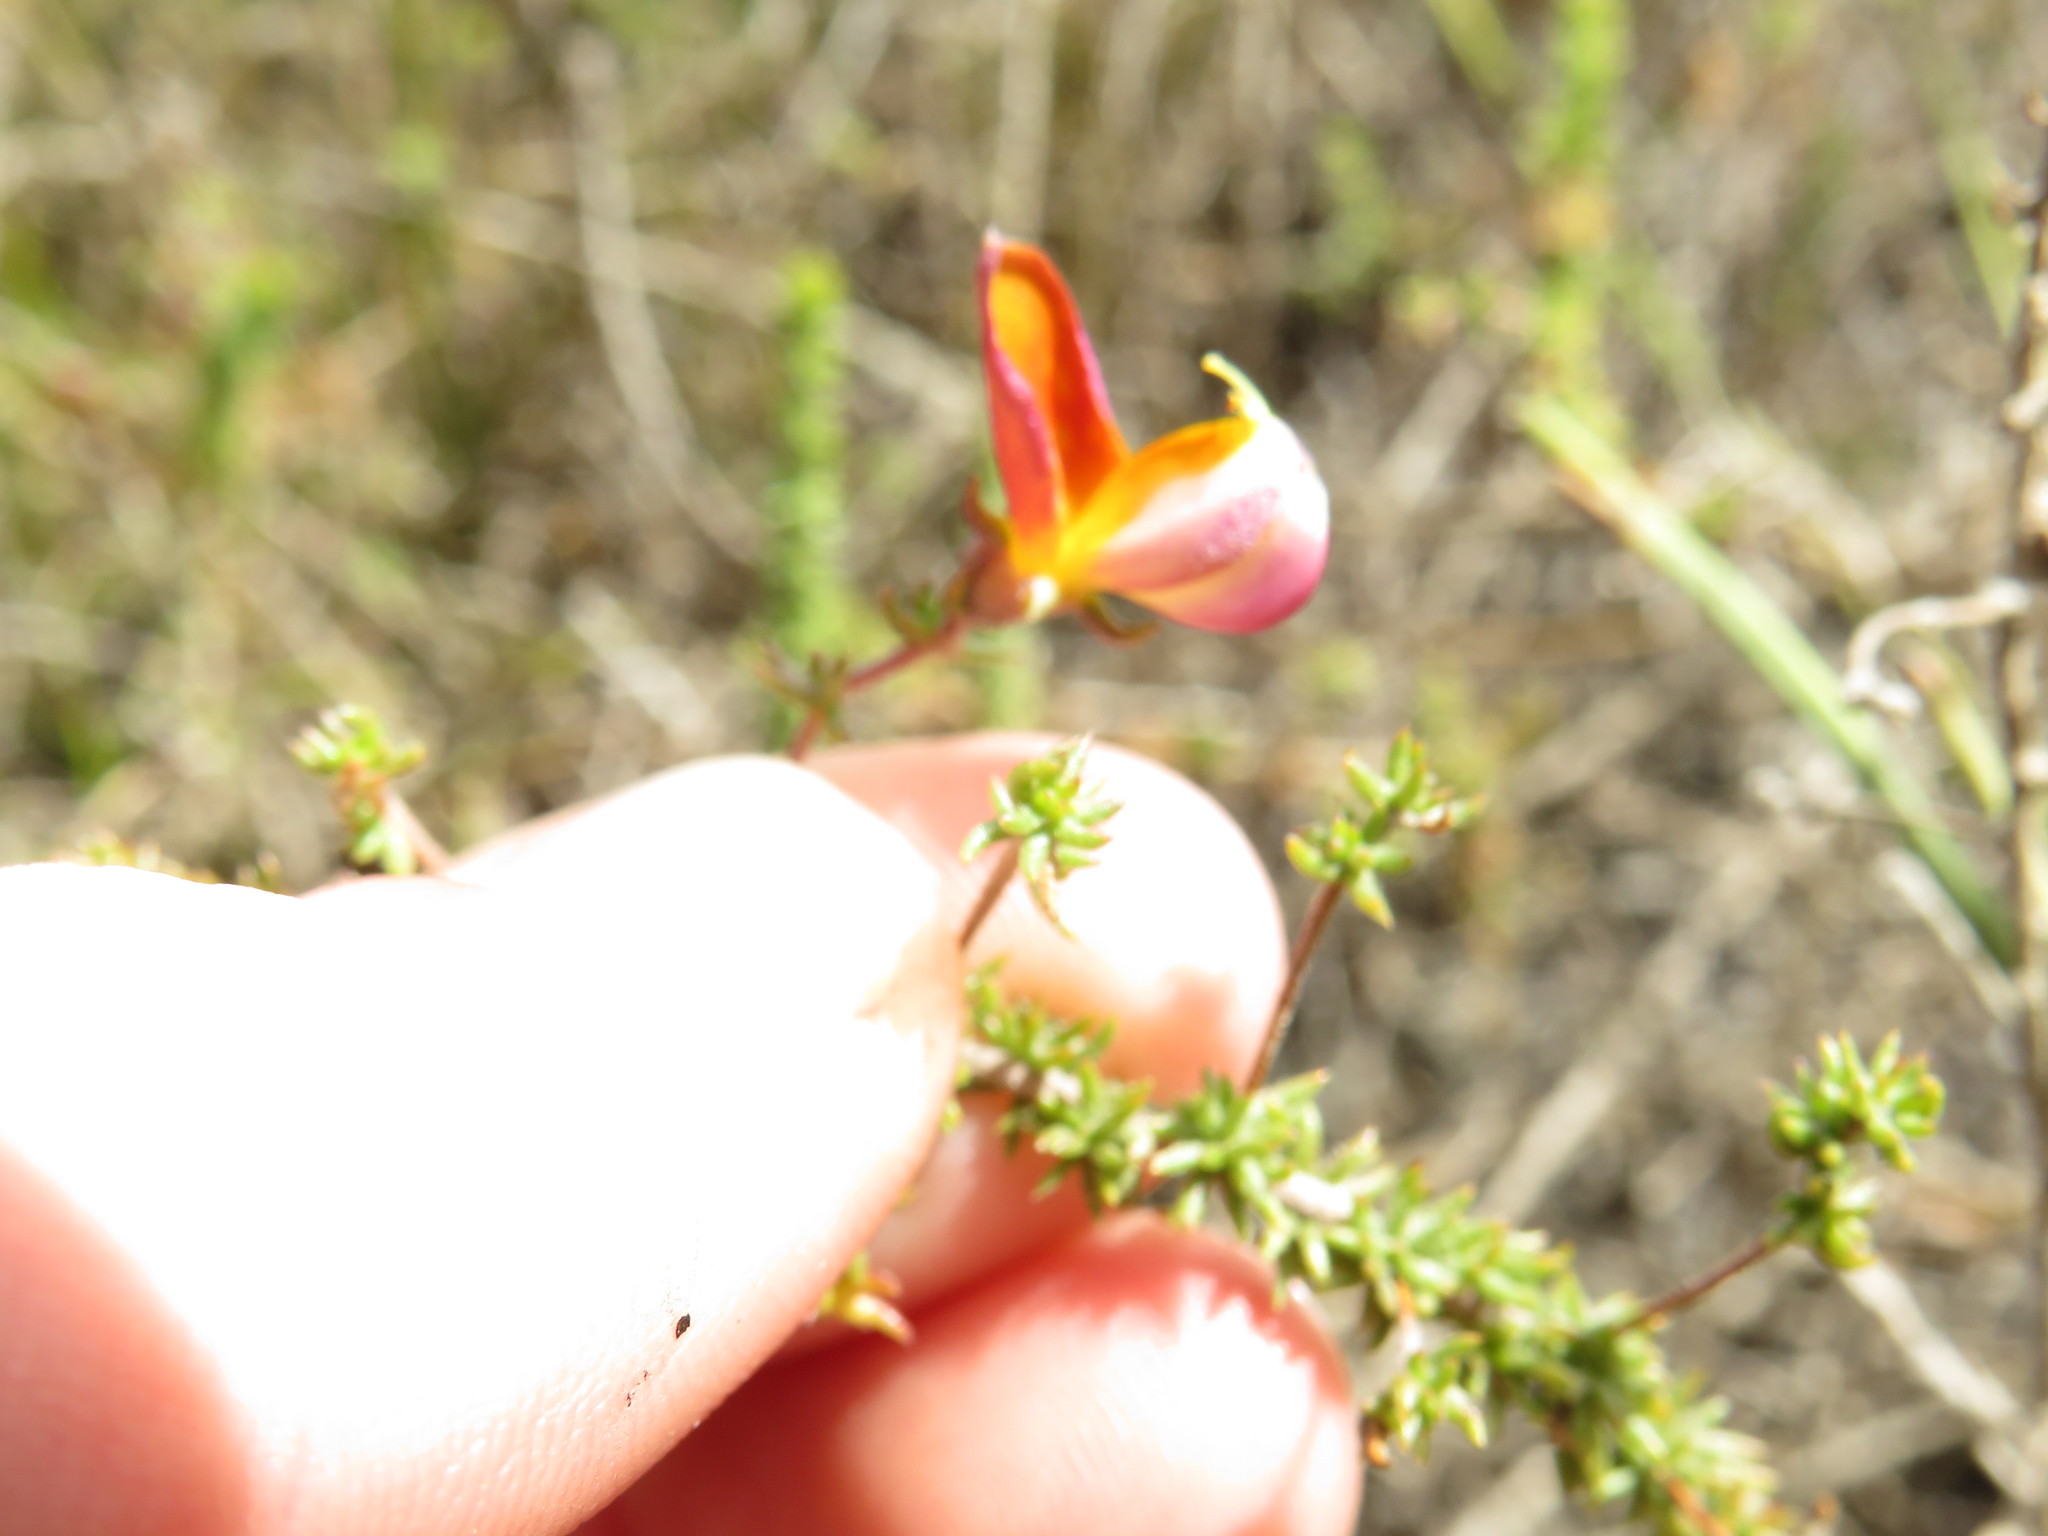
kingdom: Plantae
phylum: Tracheophyta
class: Magnoliopsida
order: Fabales
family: Fabaceae
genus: Aspalathus
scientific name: Aspalathus retroflexa
